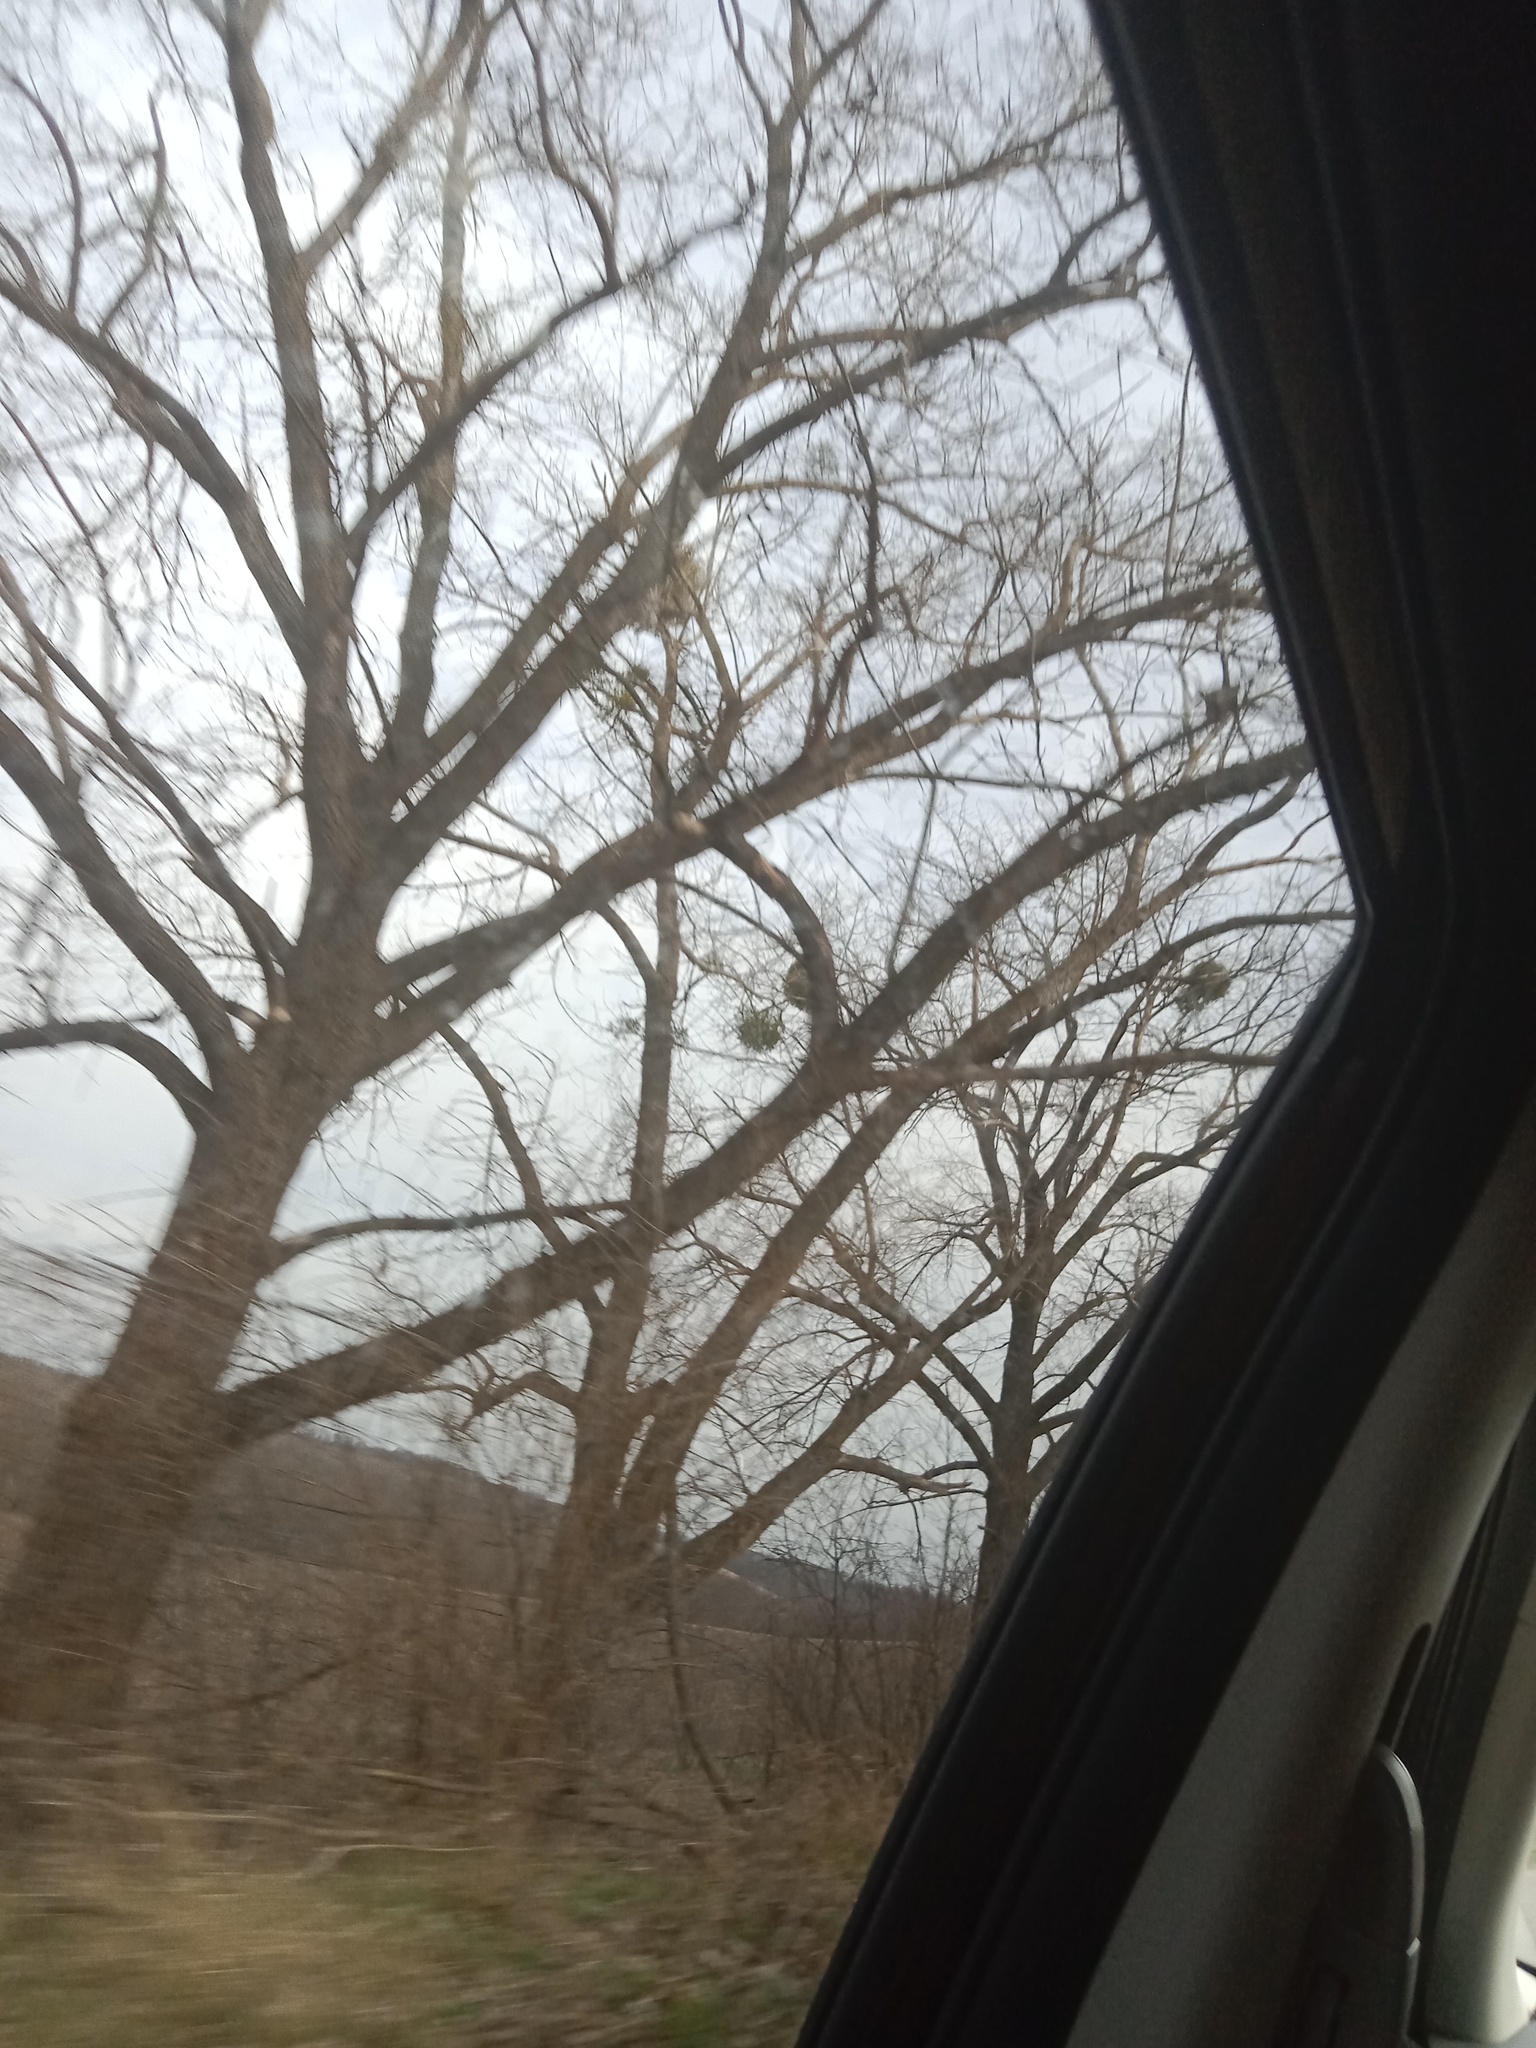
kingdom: Plantae
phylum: Tracheophyta
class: Magnoliopsida
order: Santalales
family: Viscaceae
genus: Viscum
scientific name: Viscum album
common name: Mistletoe
